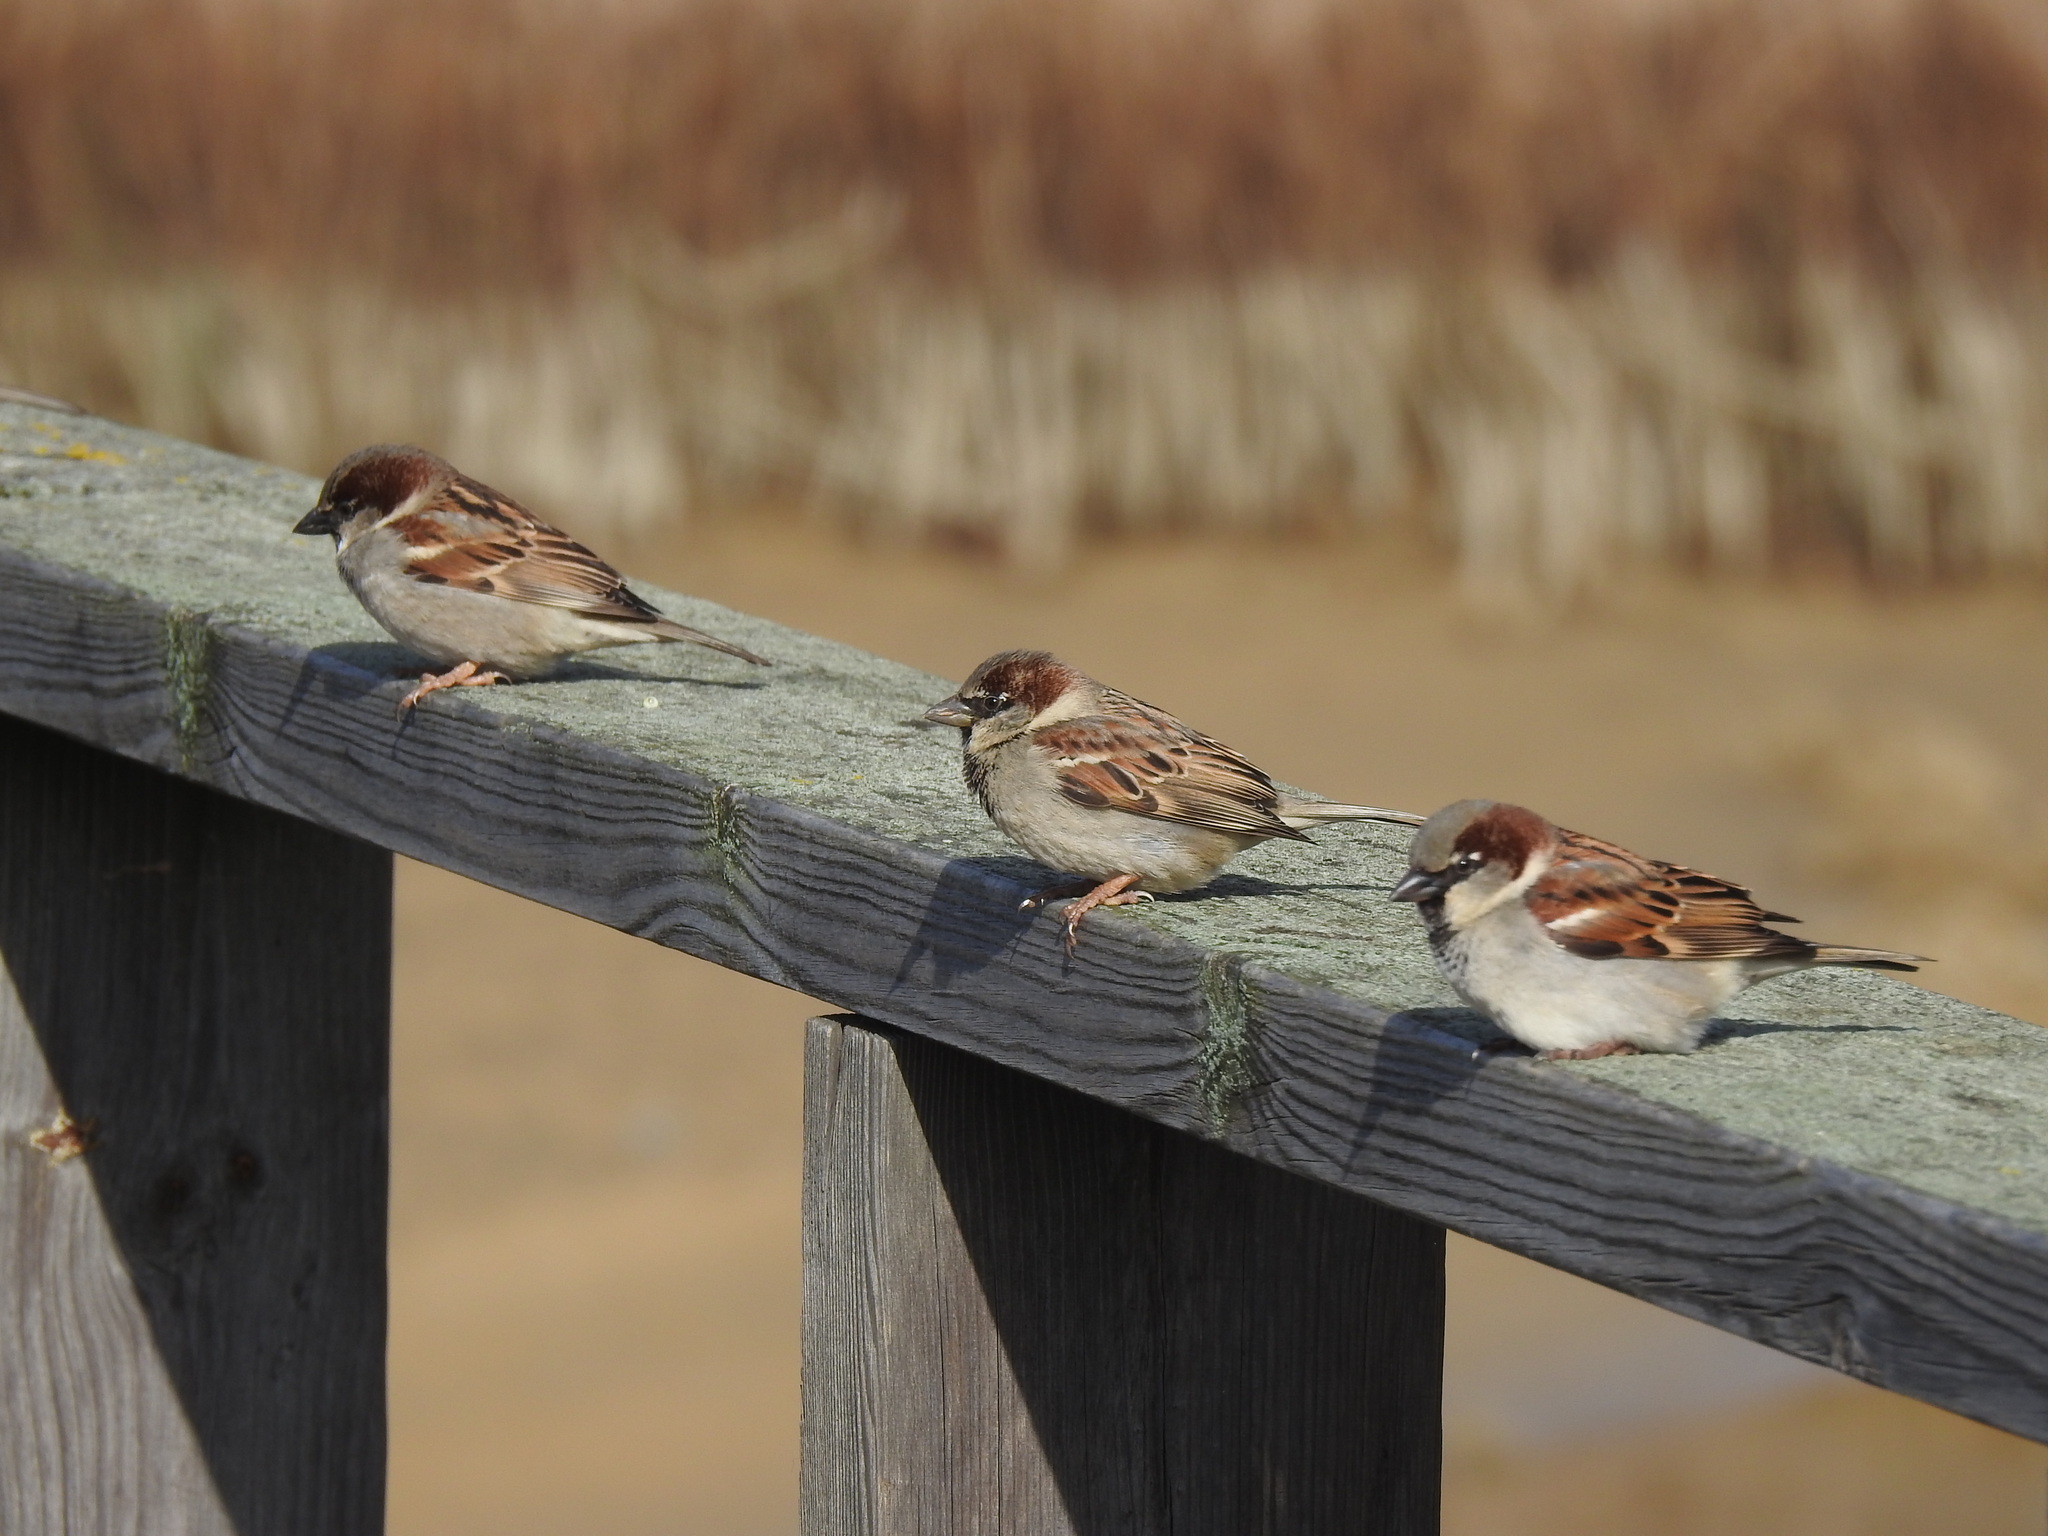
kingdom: Animalia
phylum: Chordata
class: Aves
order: Passeriformes
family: Passeridae
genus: Passer
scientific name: Passer domesticus
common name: House sparrow
